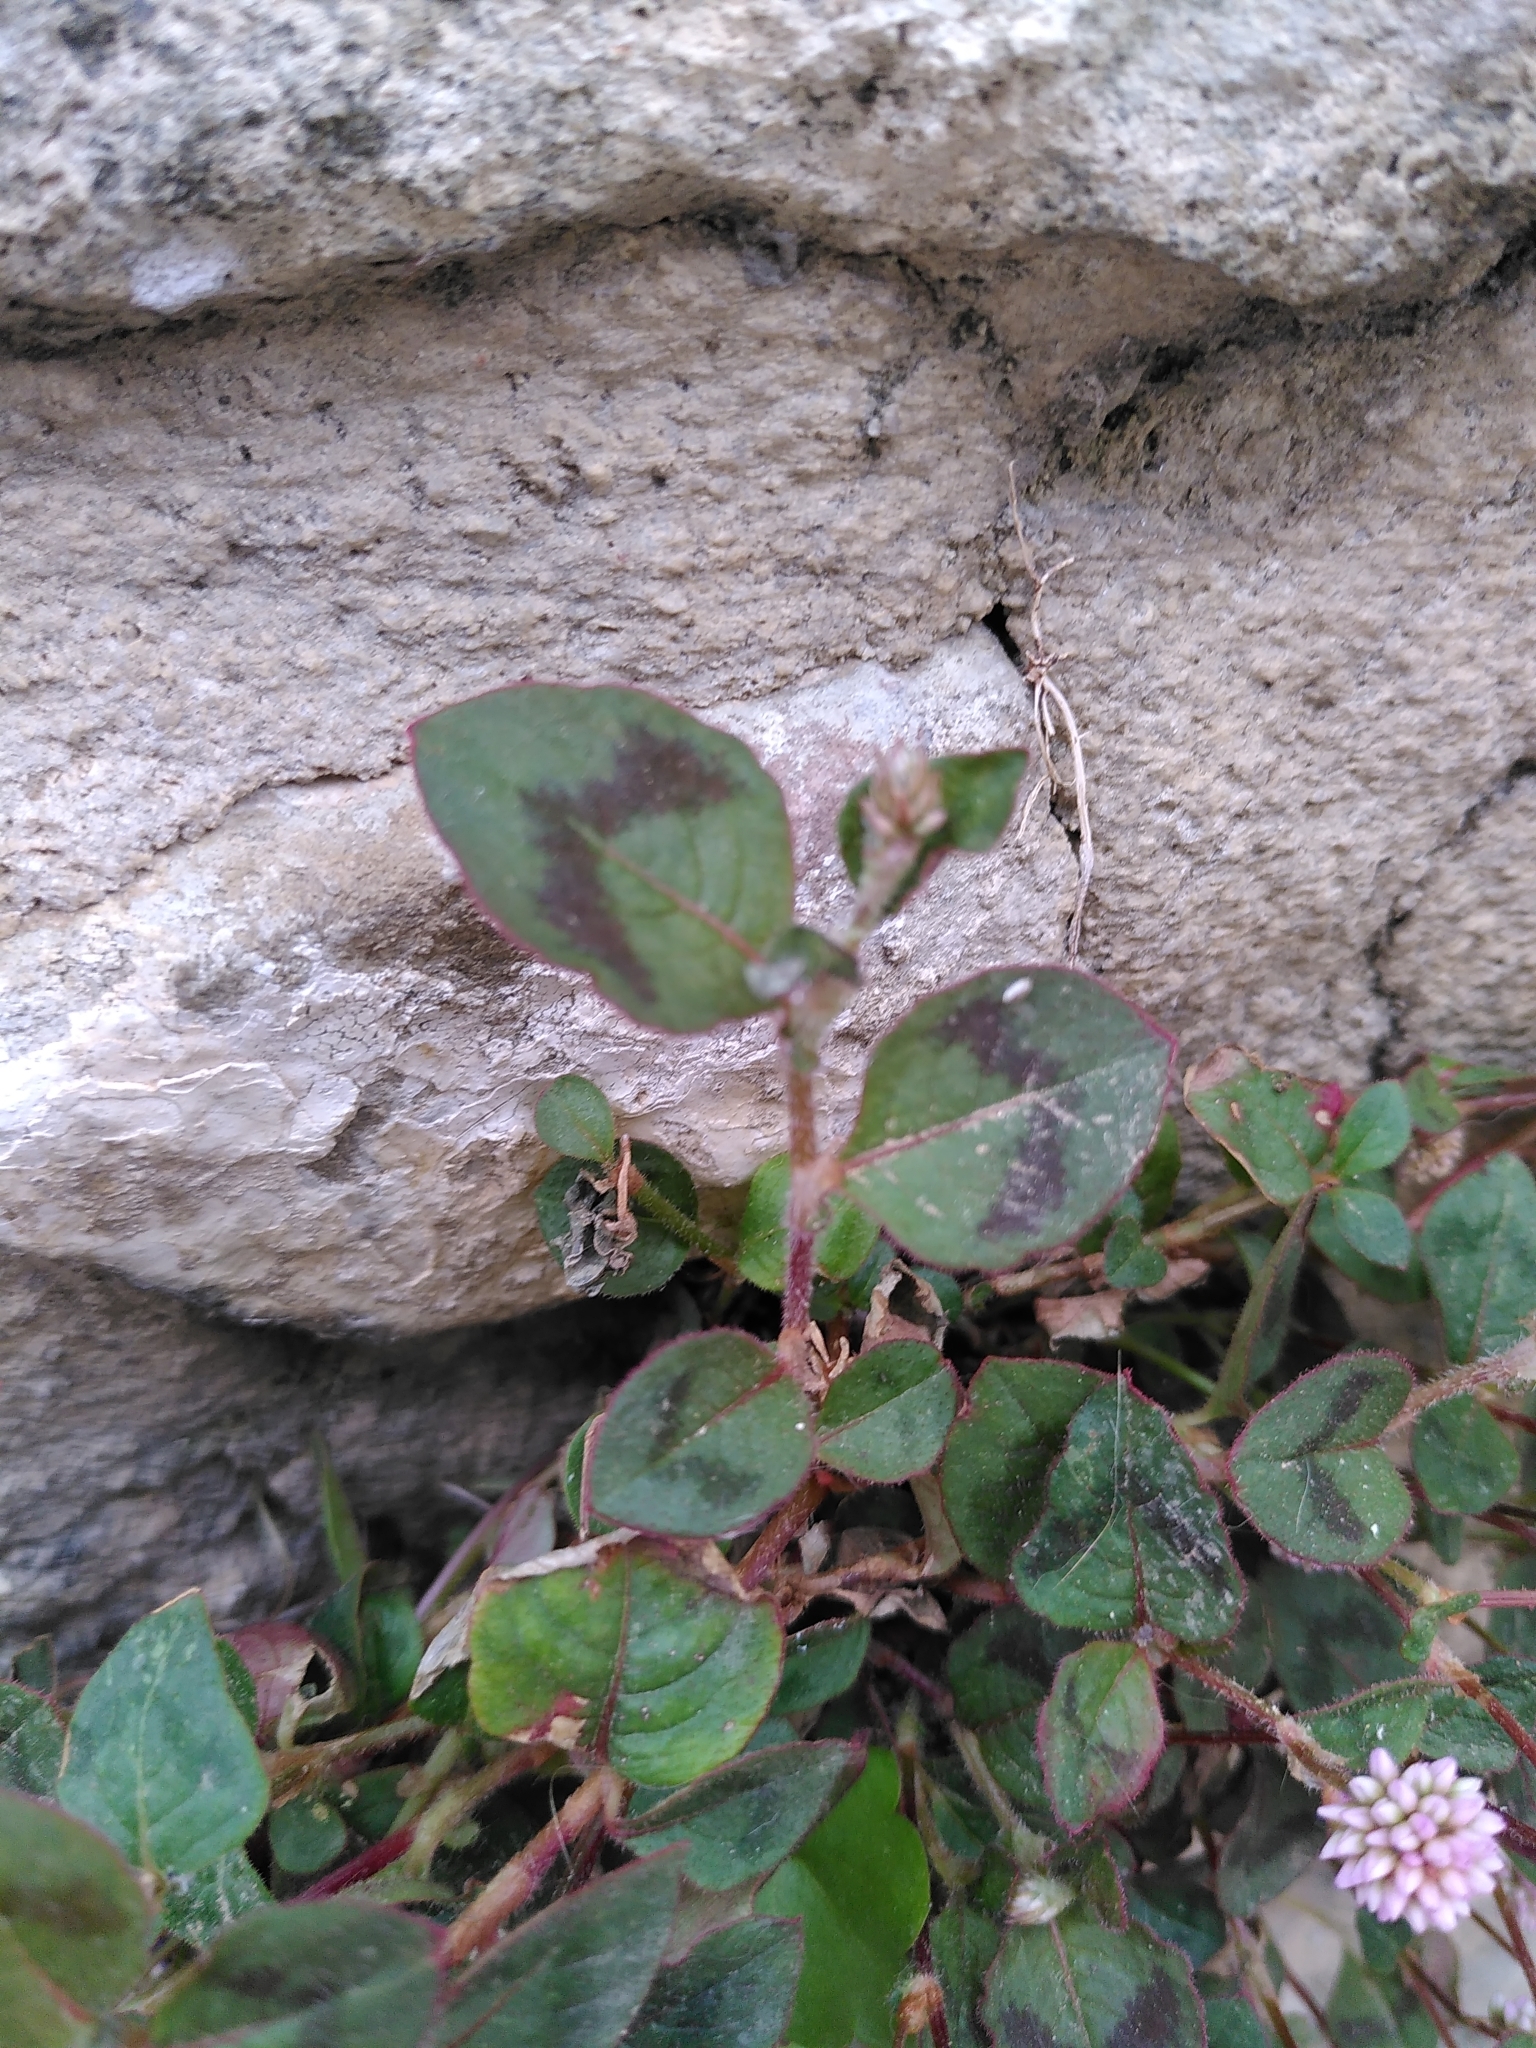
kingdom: Plantae
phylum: Tracheophyta
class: Magnoliopsida
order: Caryophyllales
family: Polygonaceae
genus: Persicaria
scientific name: Persicaria capitata
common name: Pinkhead smartweed
